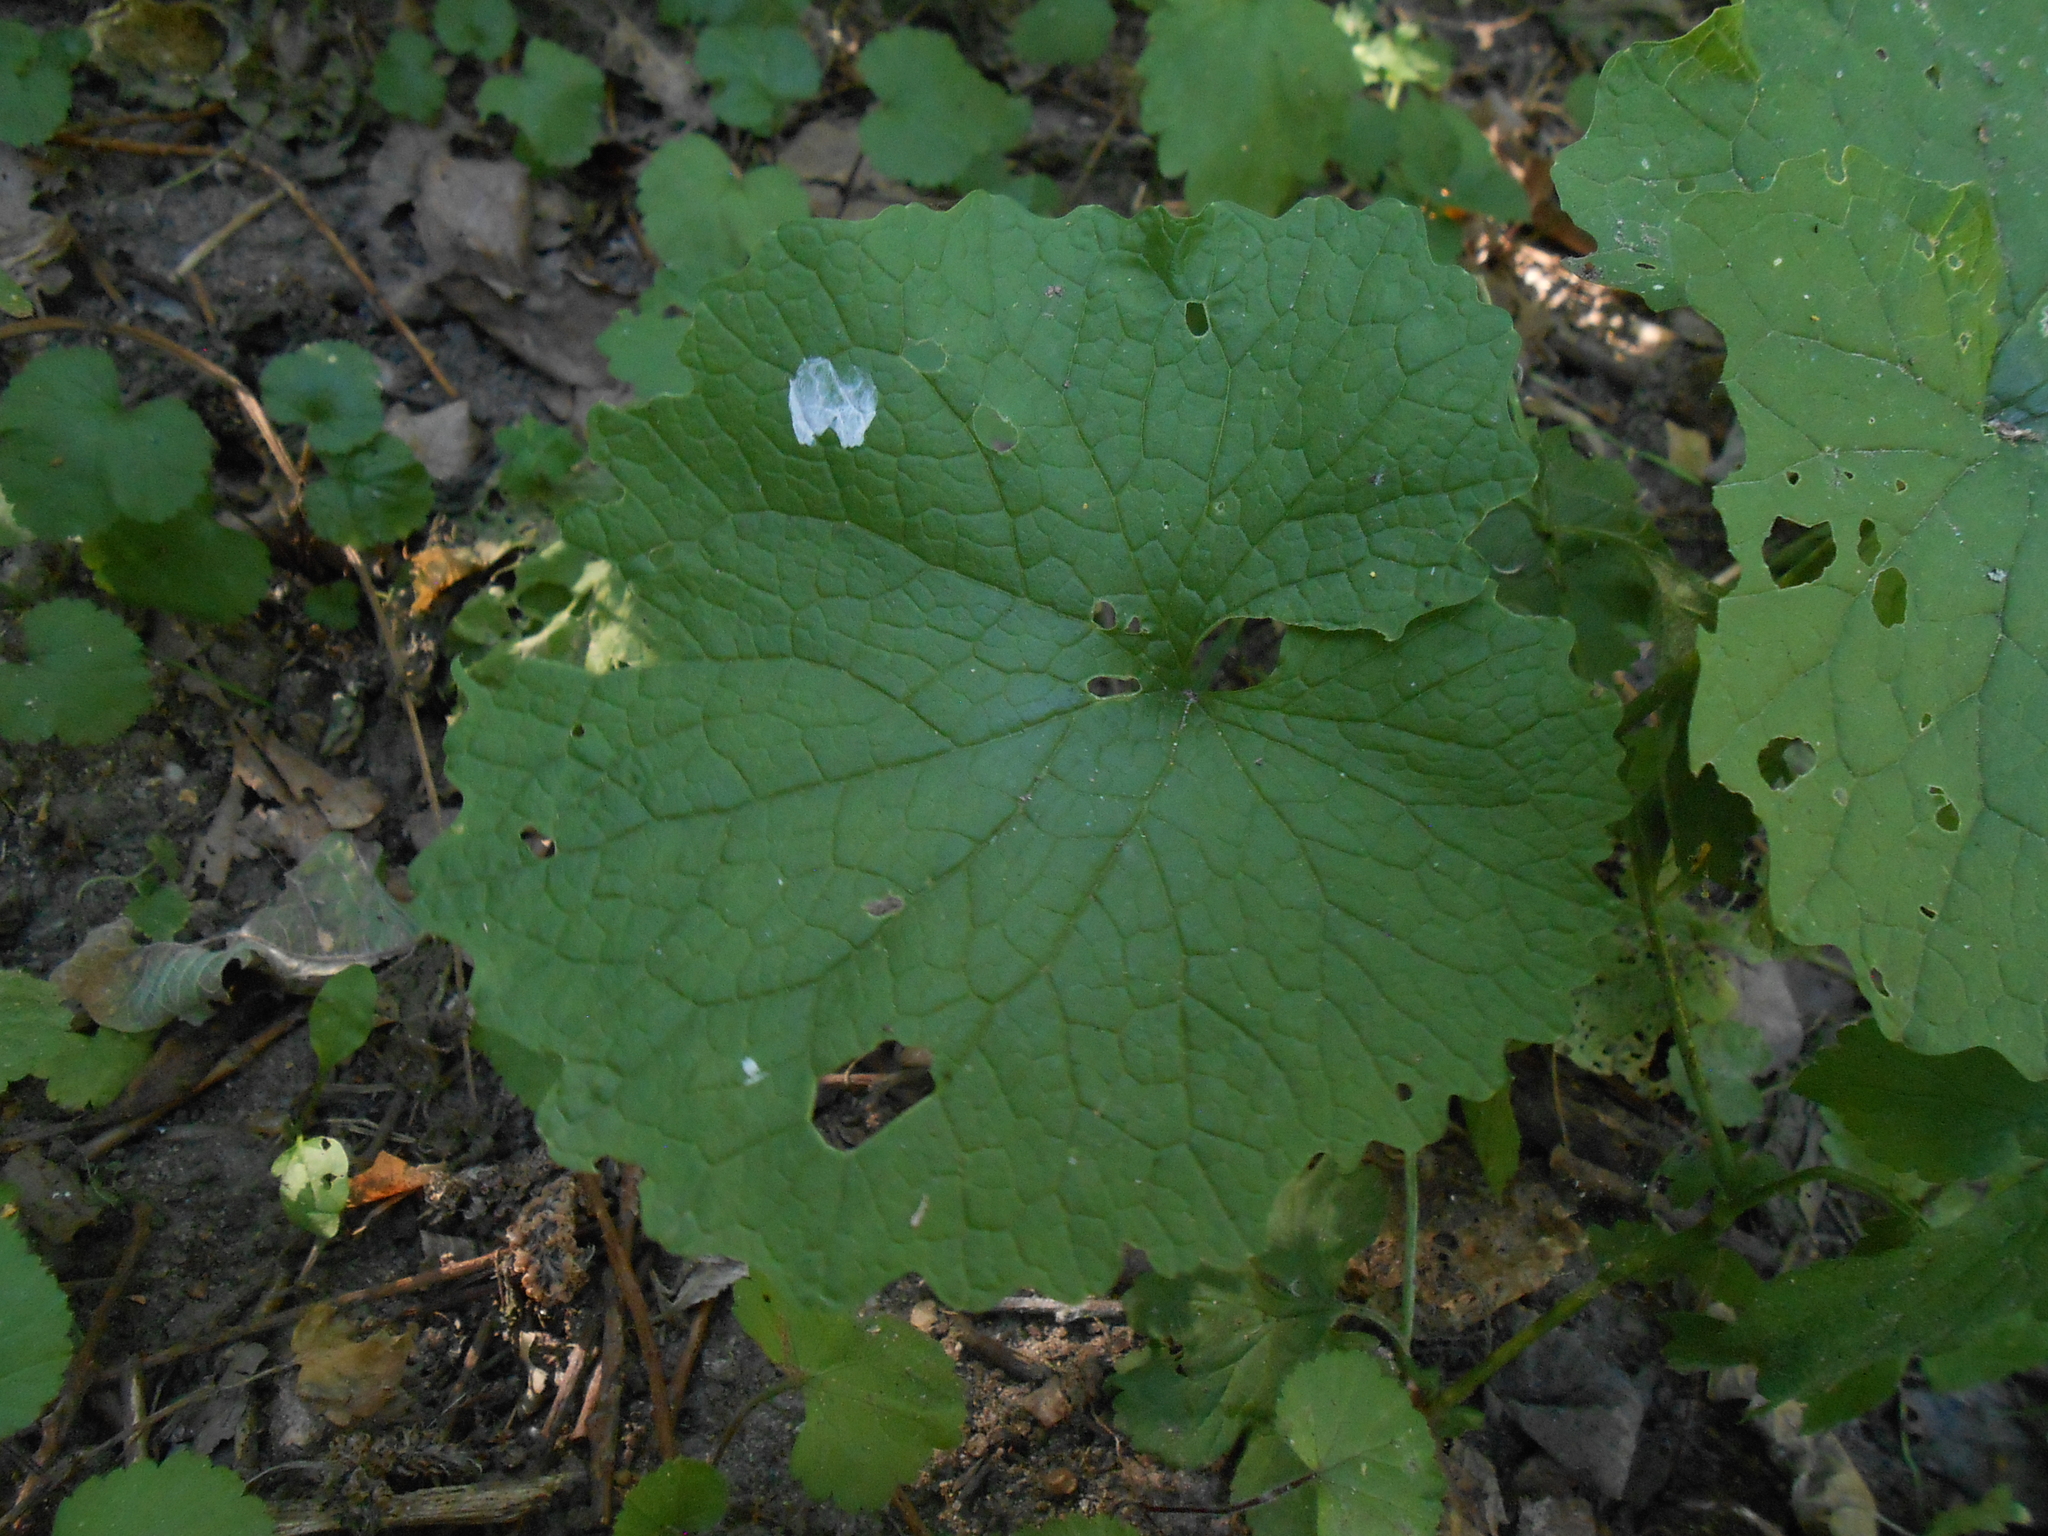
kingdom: Plantae
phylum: Tracheophyta
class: Magnoliopsida
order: Brassicales
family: Brassicaceae
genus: Alliaria
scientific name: Alliaria petiolata
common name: Garlic mustard
